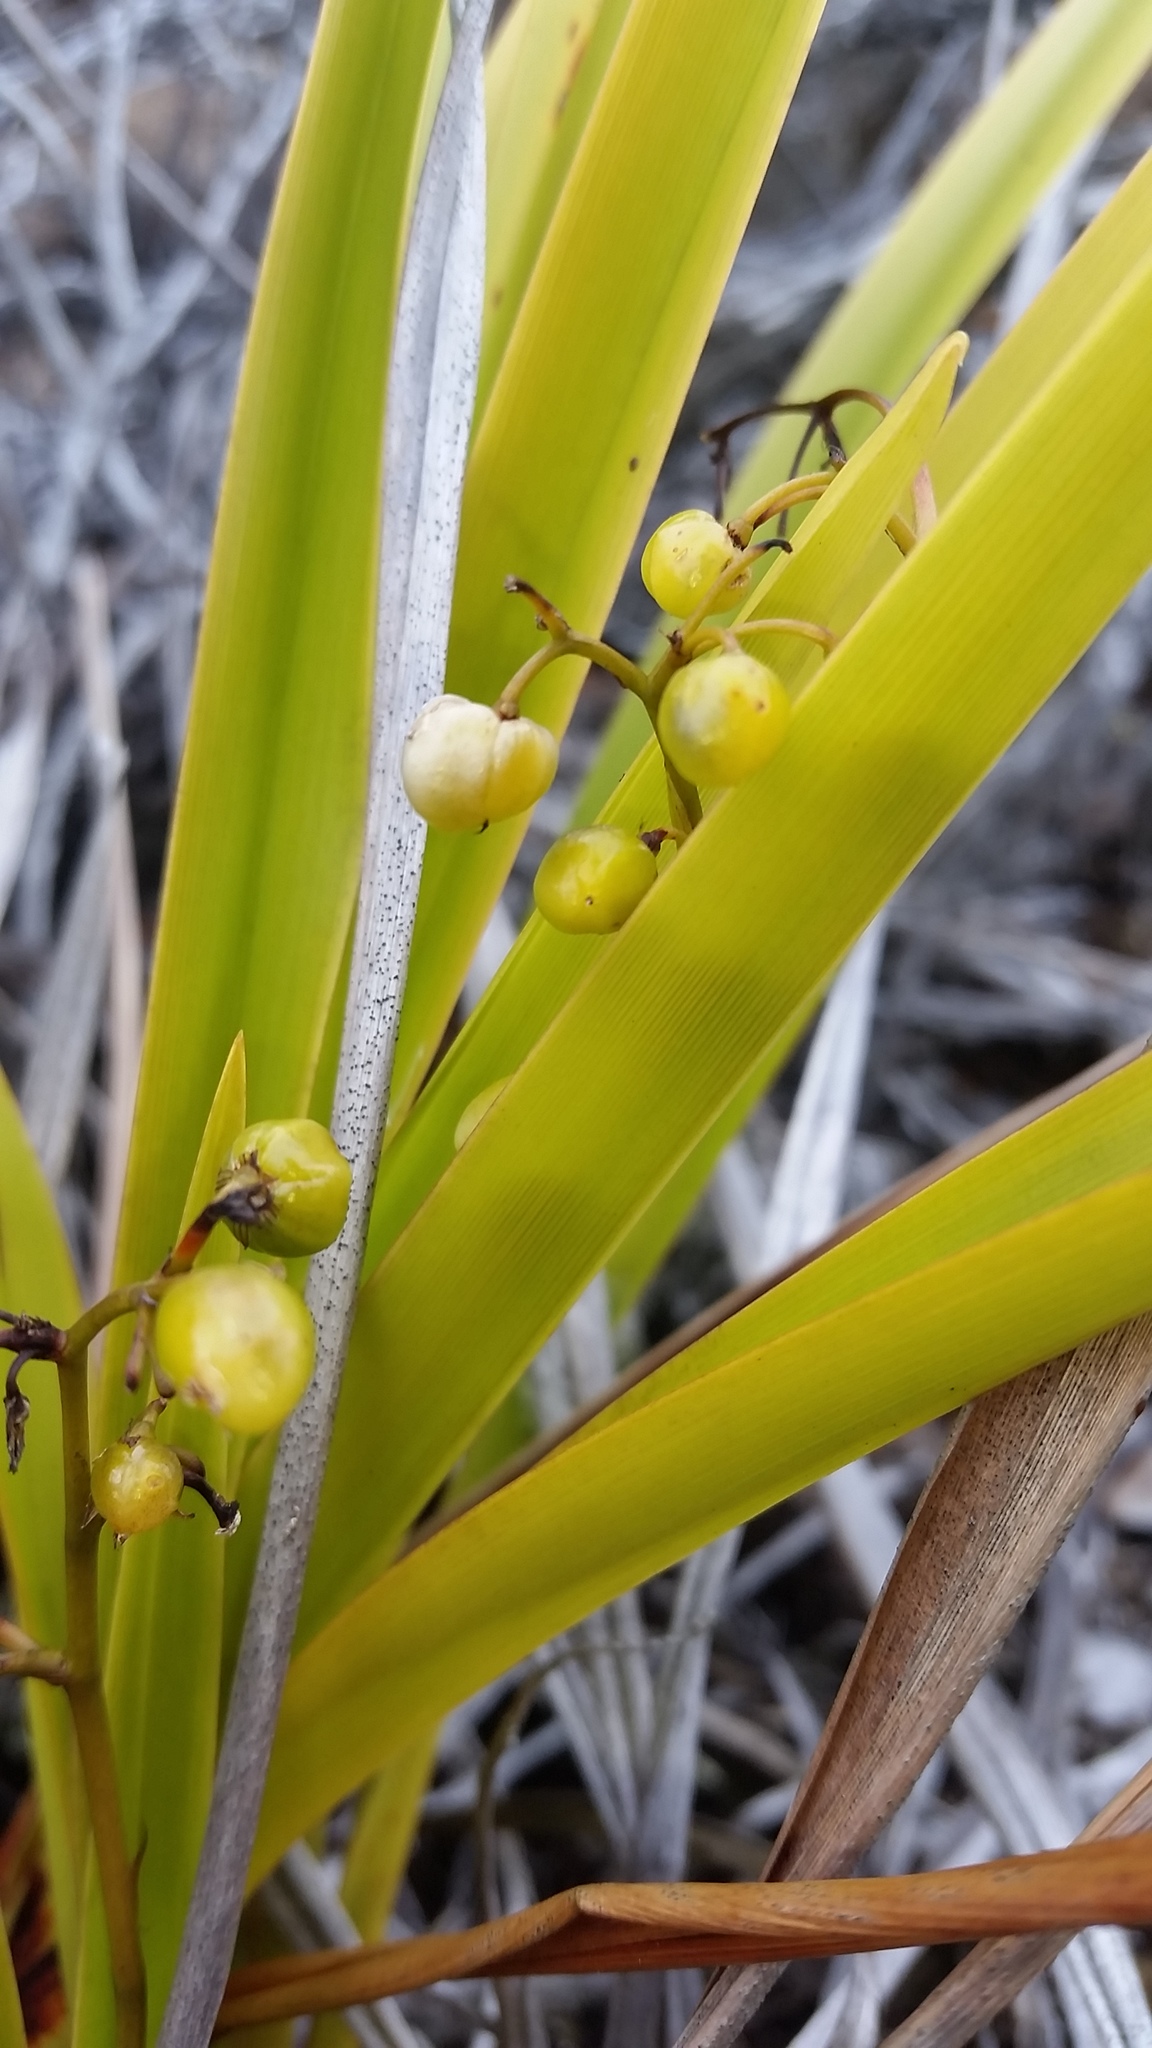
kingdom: Plantae
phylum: Tracheophyta
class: Liliopsida
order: Asparagales
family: Asphodelaceae
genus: Dianella
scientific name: Dianella sandwicensis
